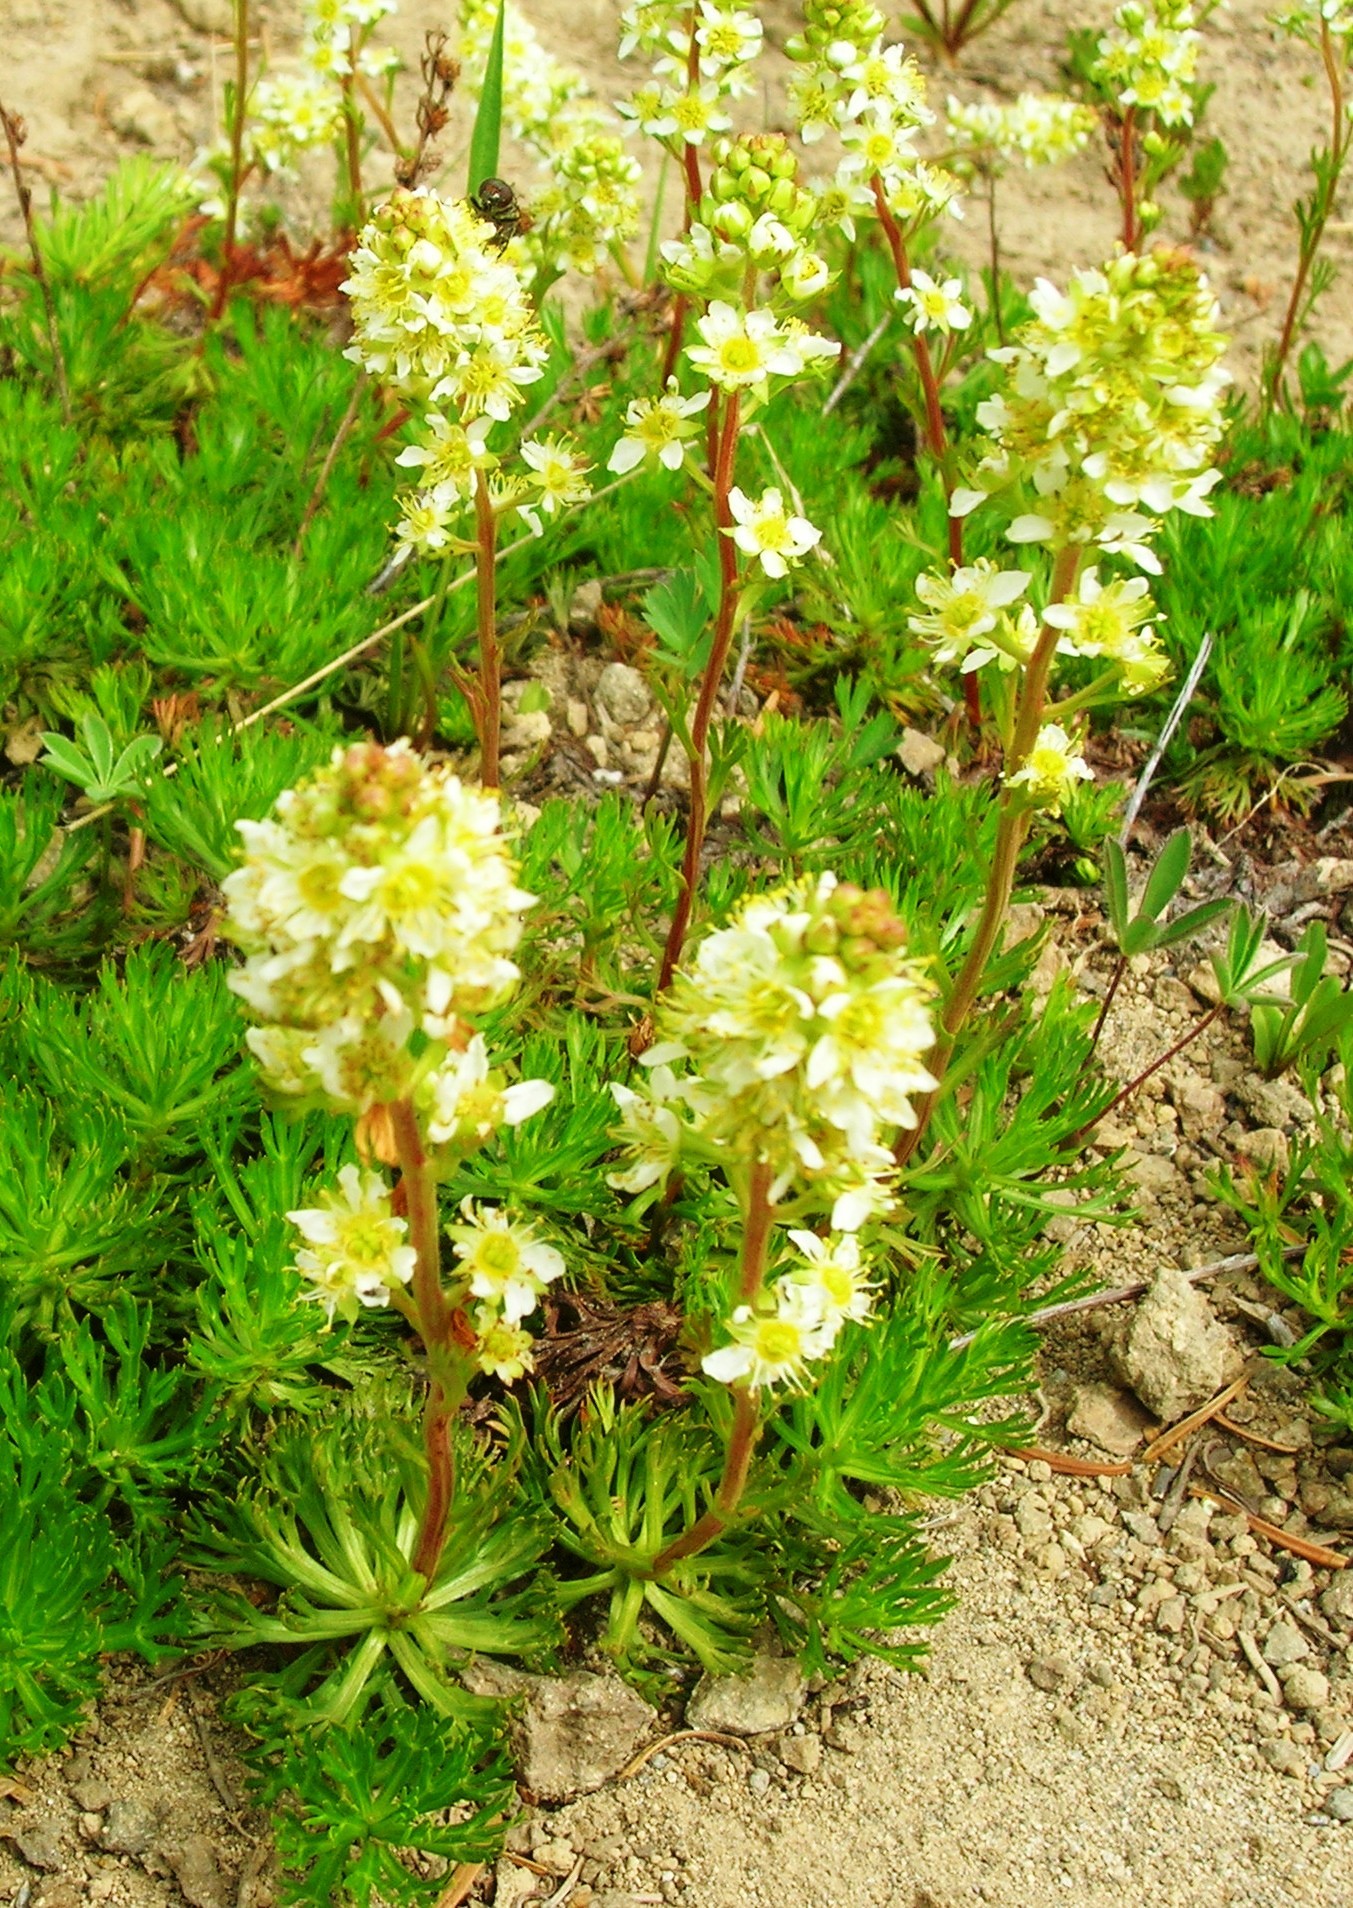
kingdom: Plantae
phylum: Tracheophyta
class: Magnoliopsida
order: Rosales
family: Rosaceae
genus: Luetkea
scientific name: Luetkea pectinata
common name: Partridgefoot
